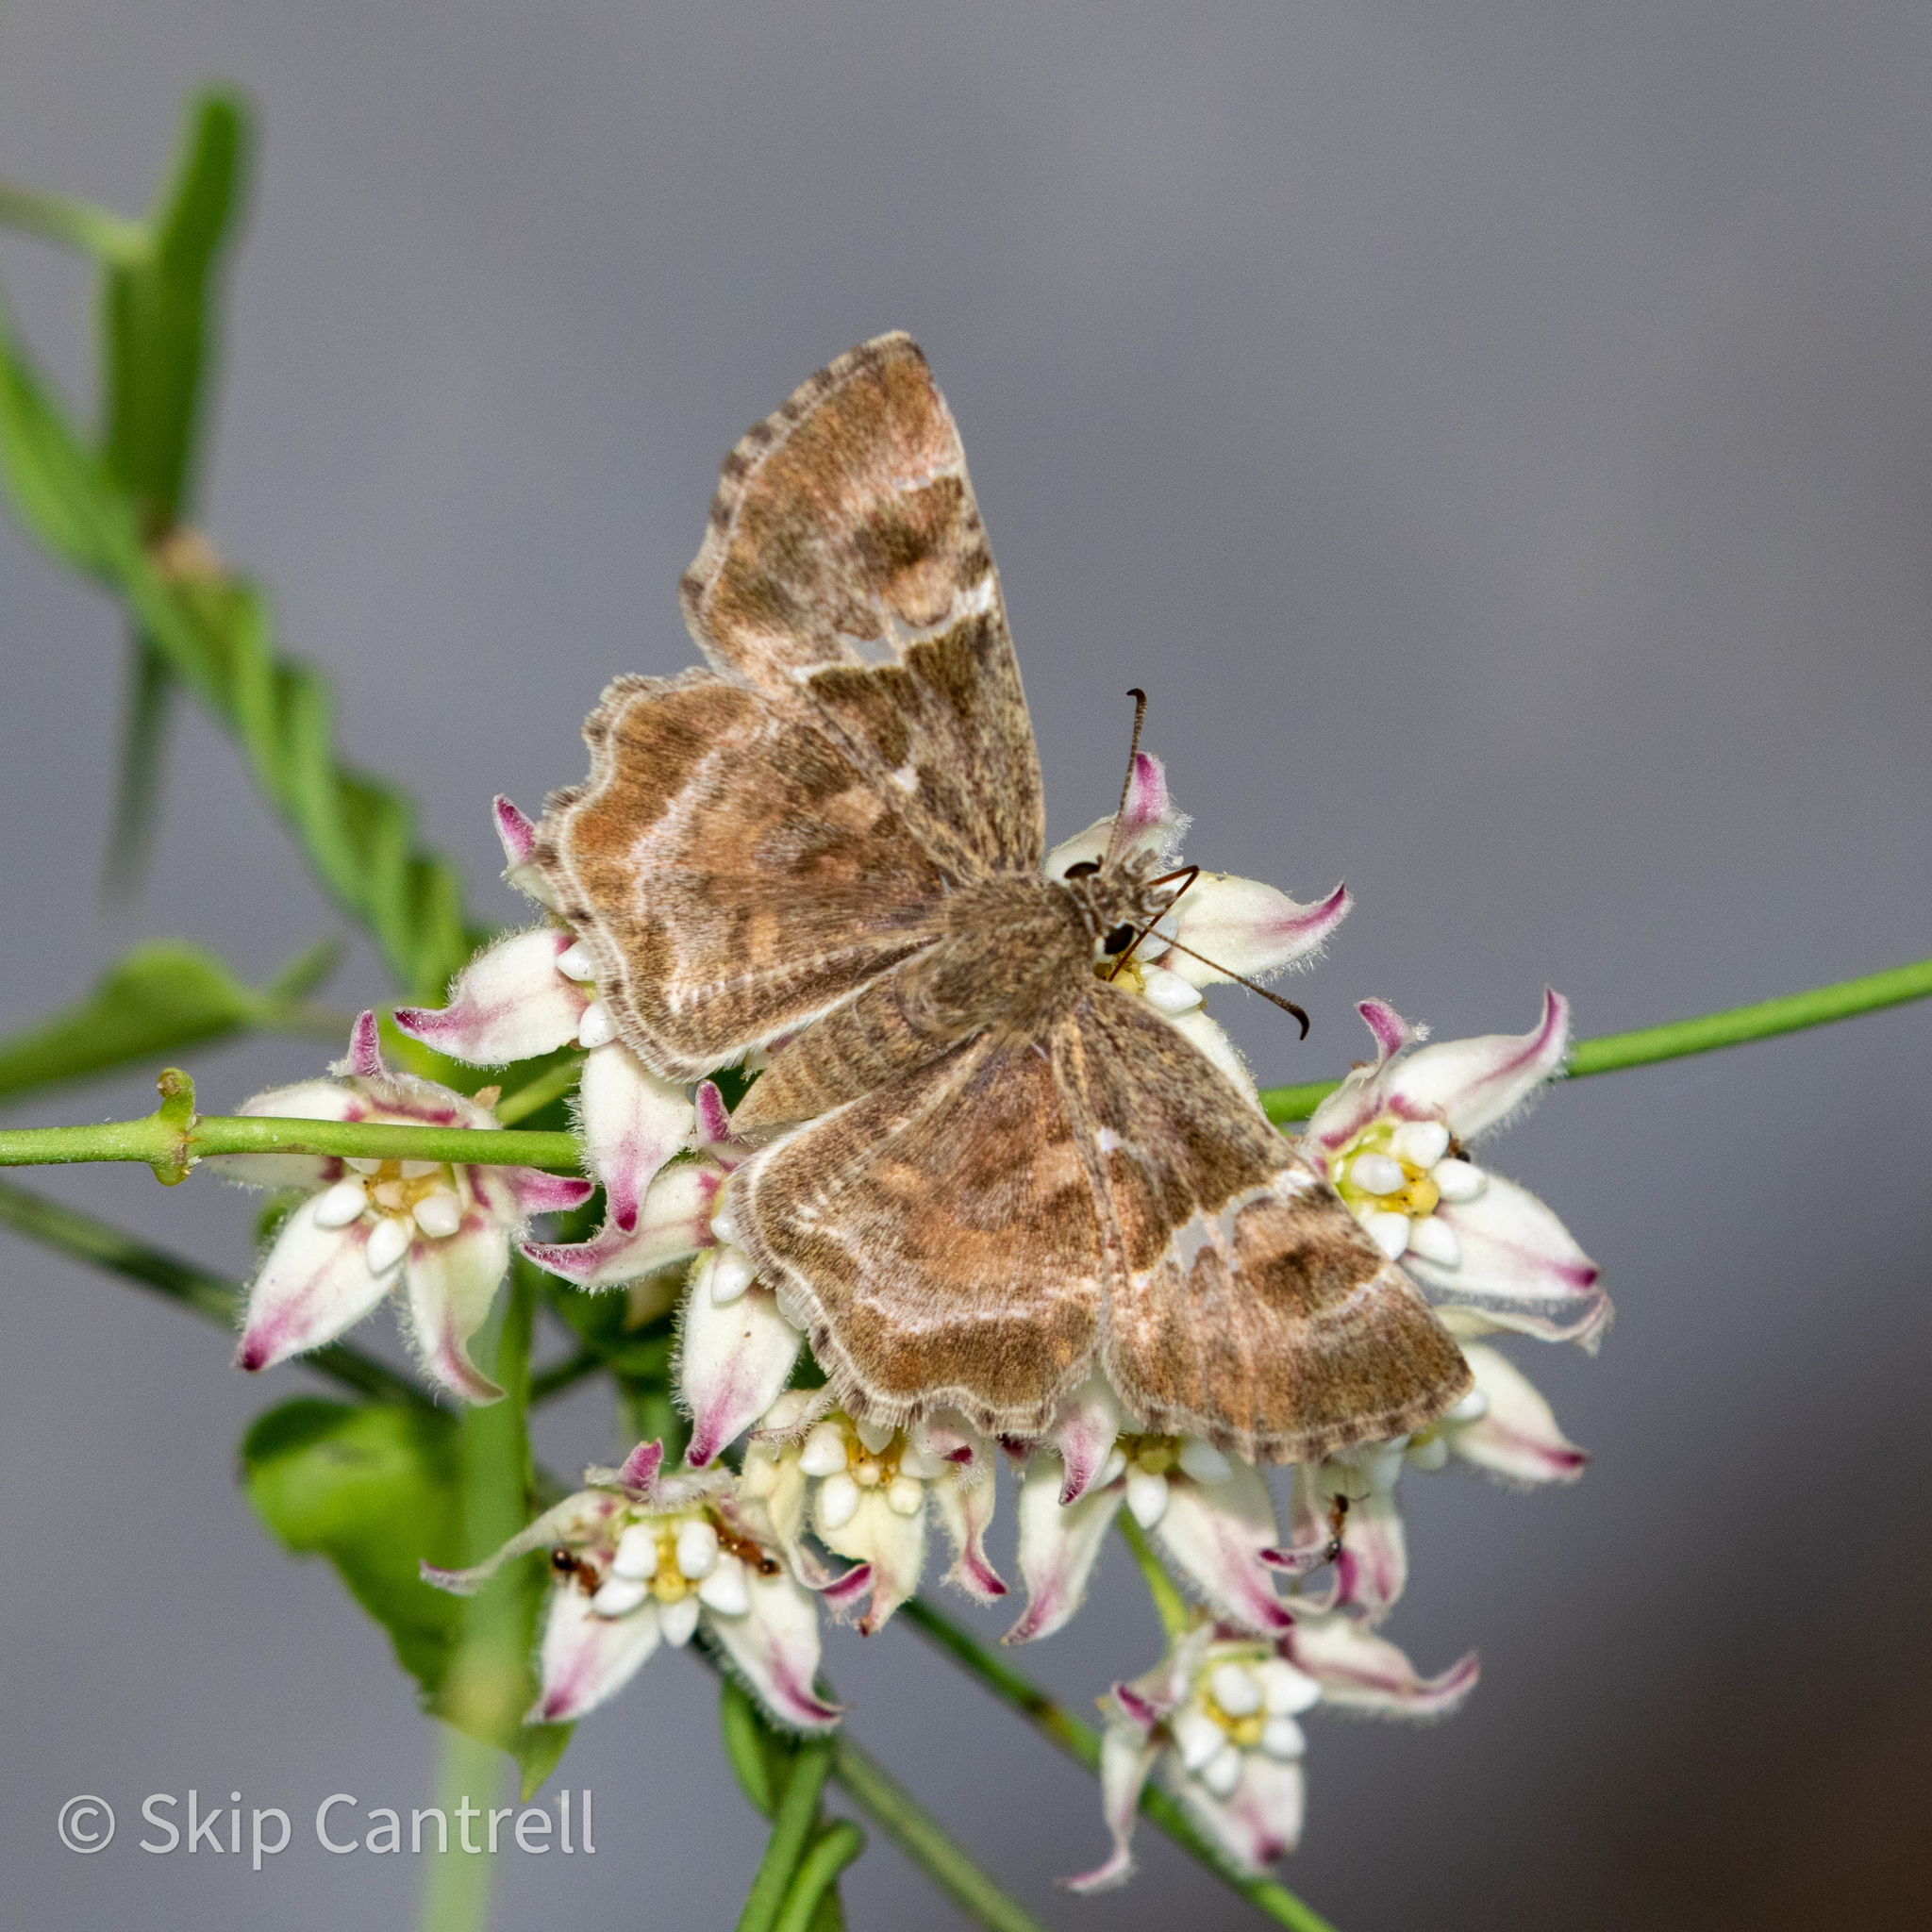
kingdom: Animalia
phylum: Arthropoda
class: Insecta
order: Lepidoptera
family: Hesperiidae
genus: Systasea
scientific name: Systasea pulverulenta
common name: Texas powdered skipper
